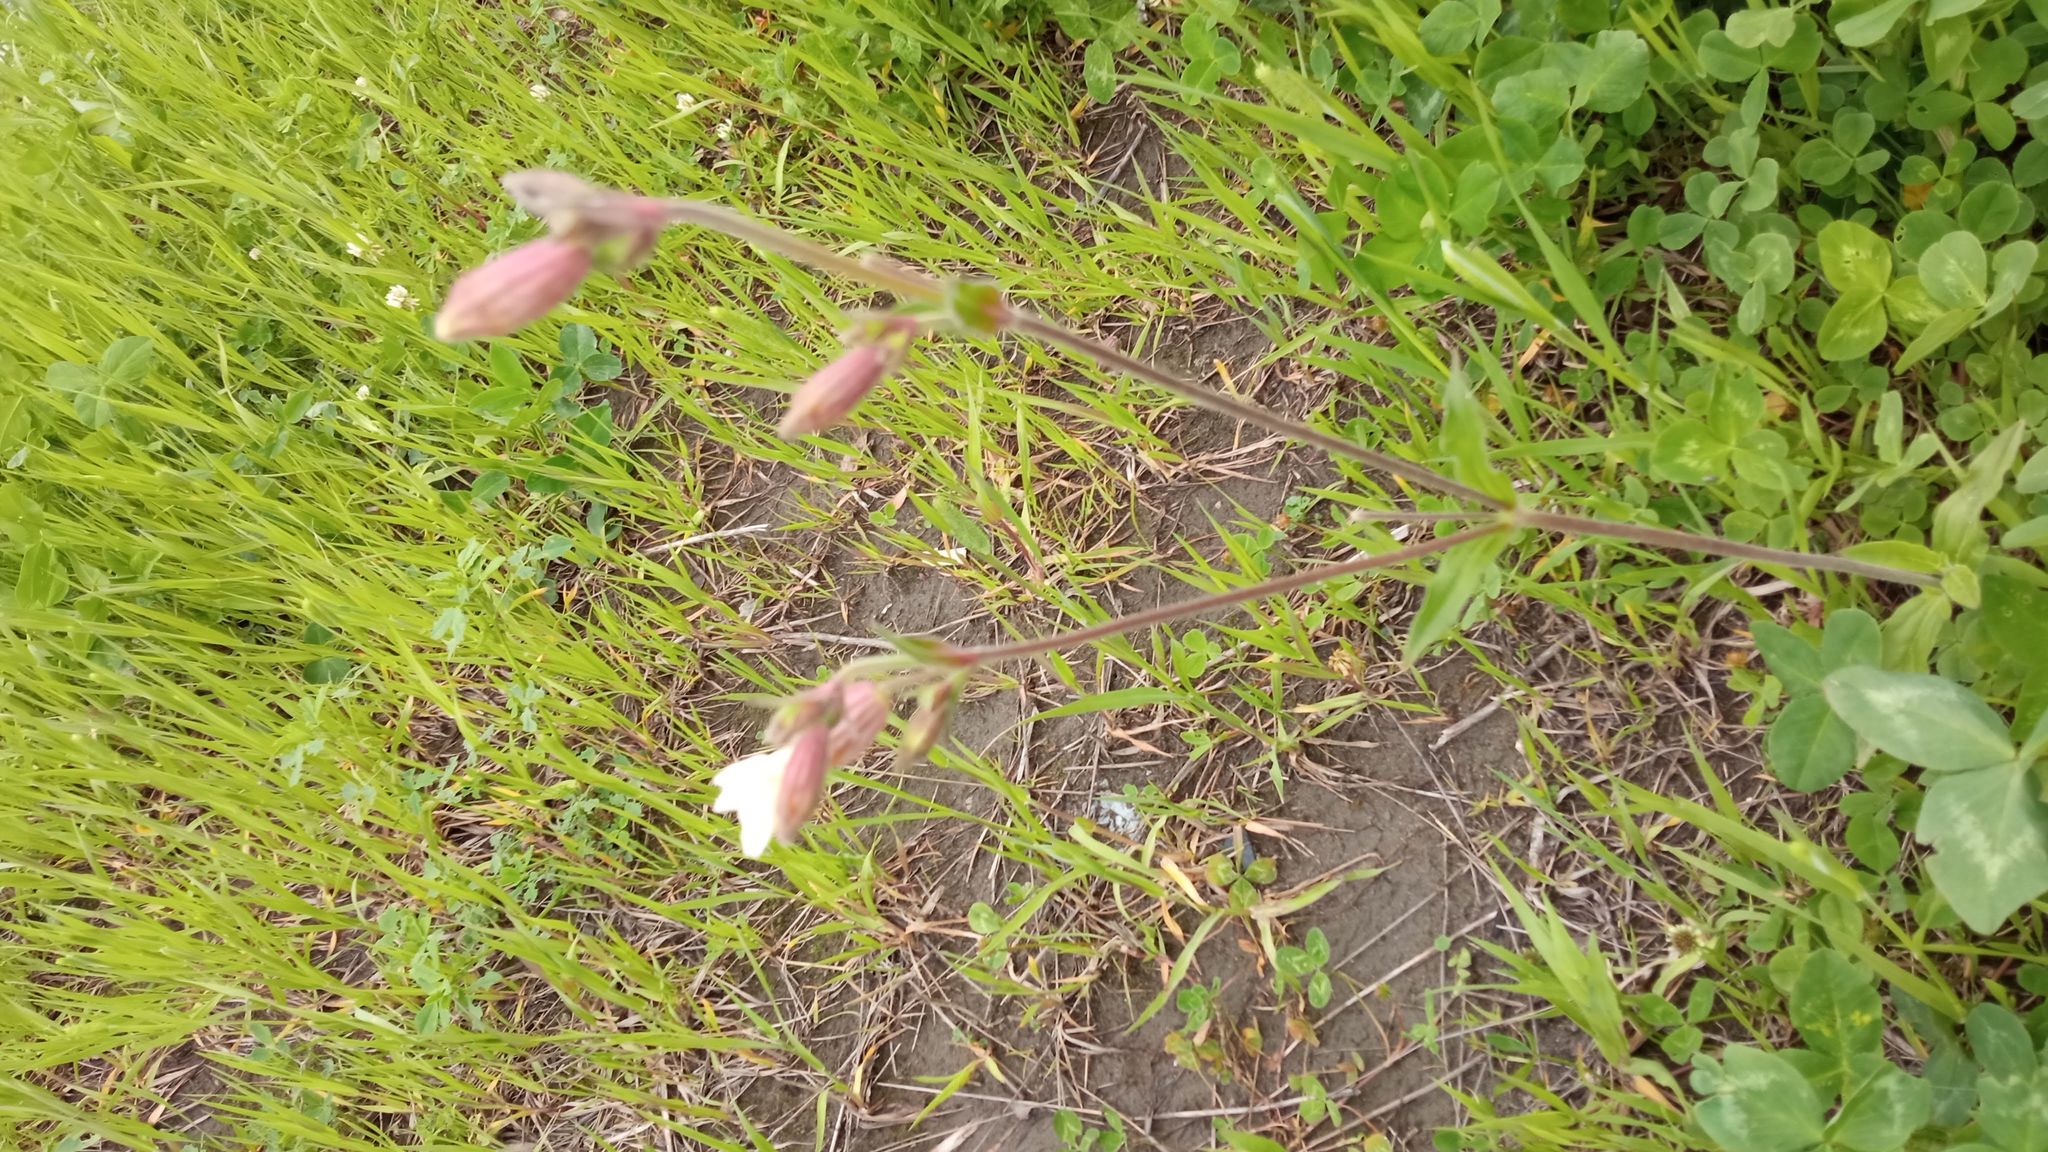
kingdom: Plantae
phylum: Tracheophyta
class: Magnoliopsida
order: Caryophyllales
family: Caryophyllaceae
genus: Silene
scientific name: Silene latifolia
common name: White campion
